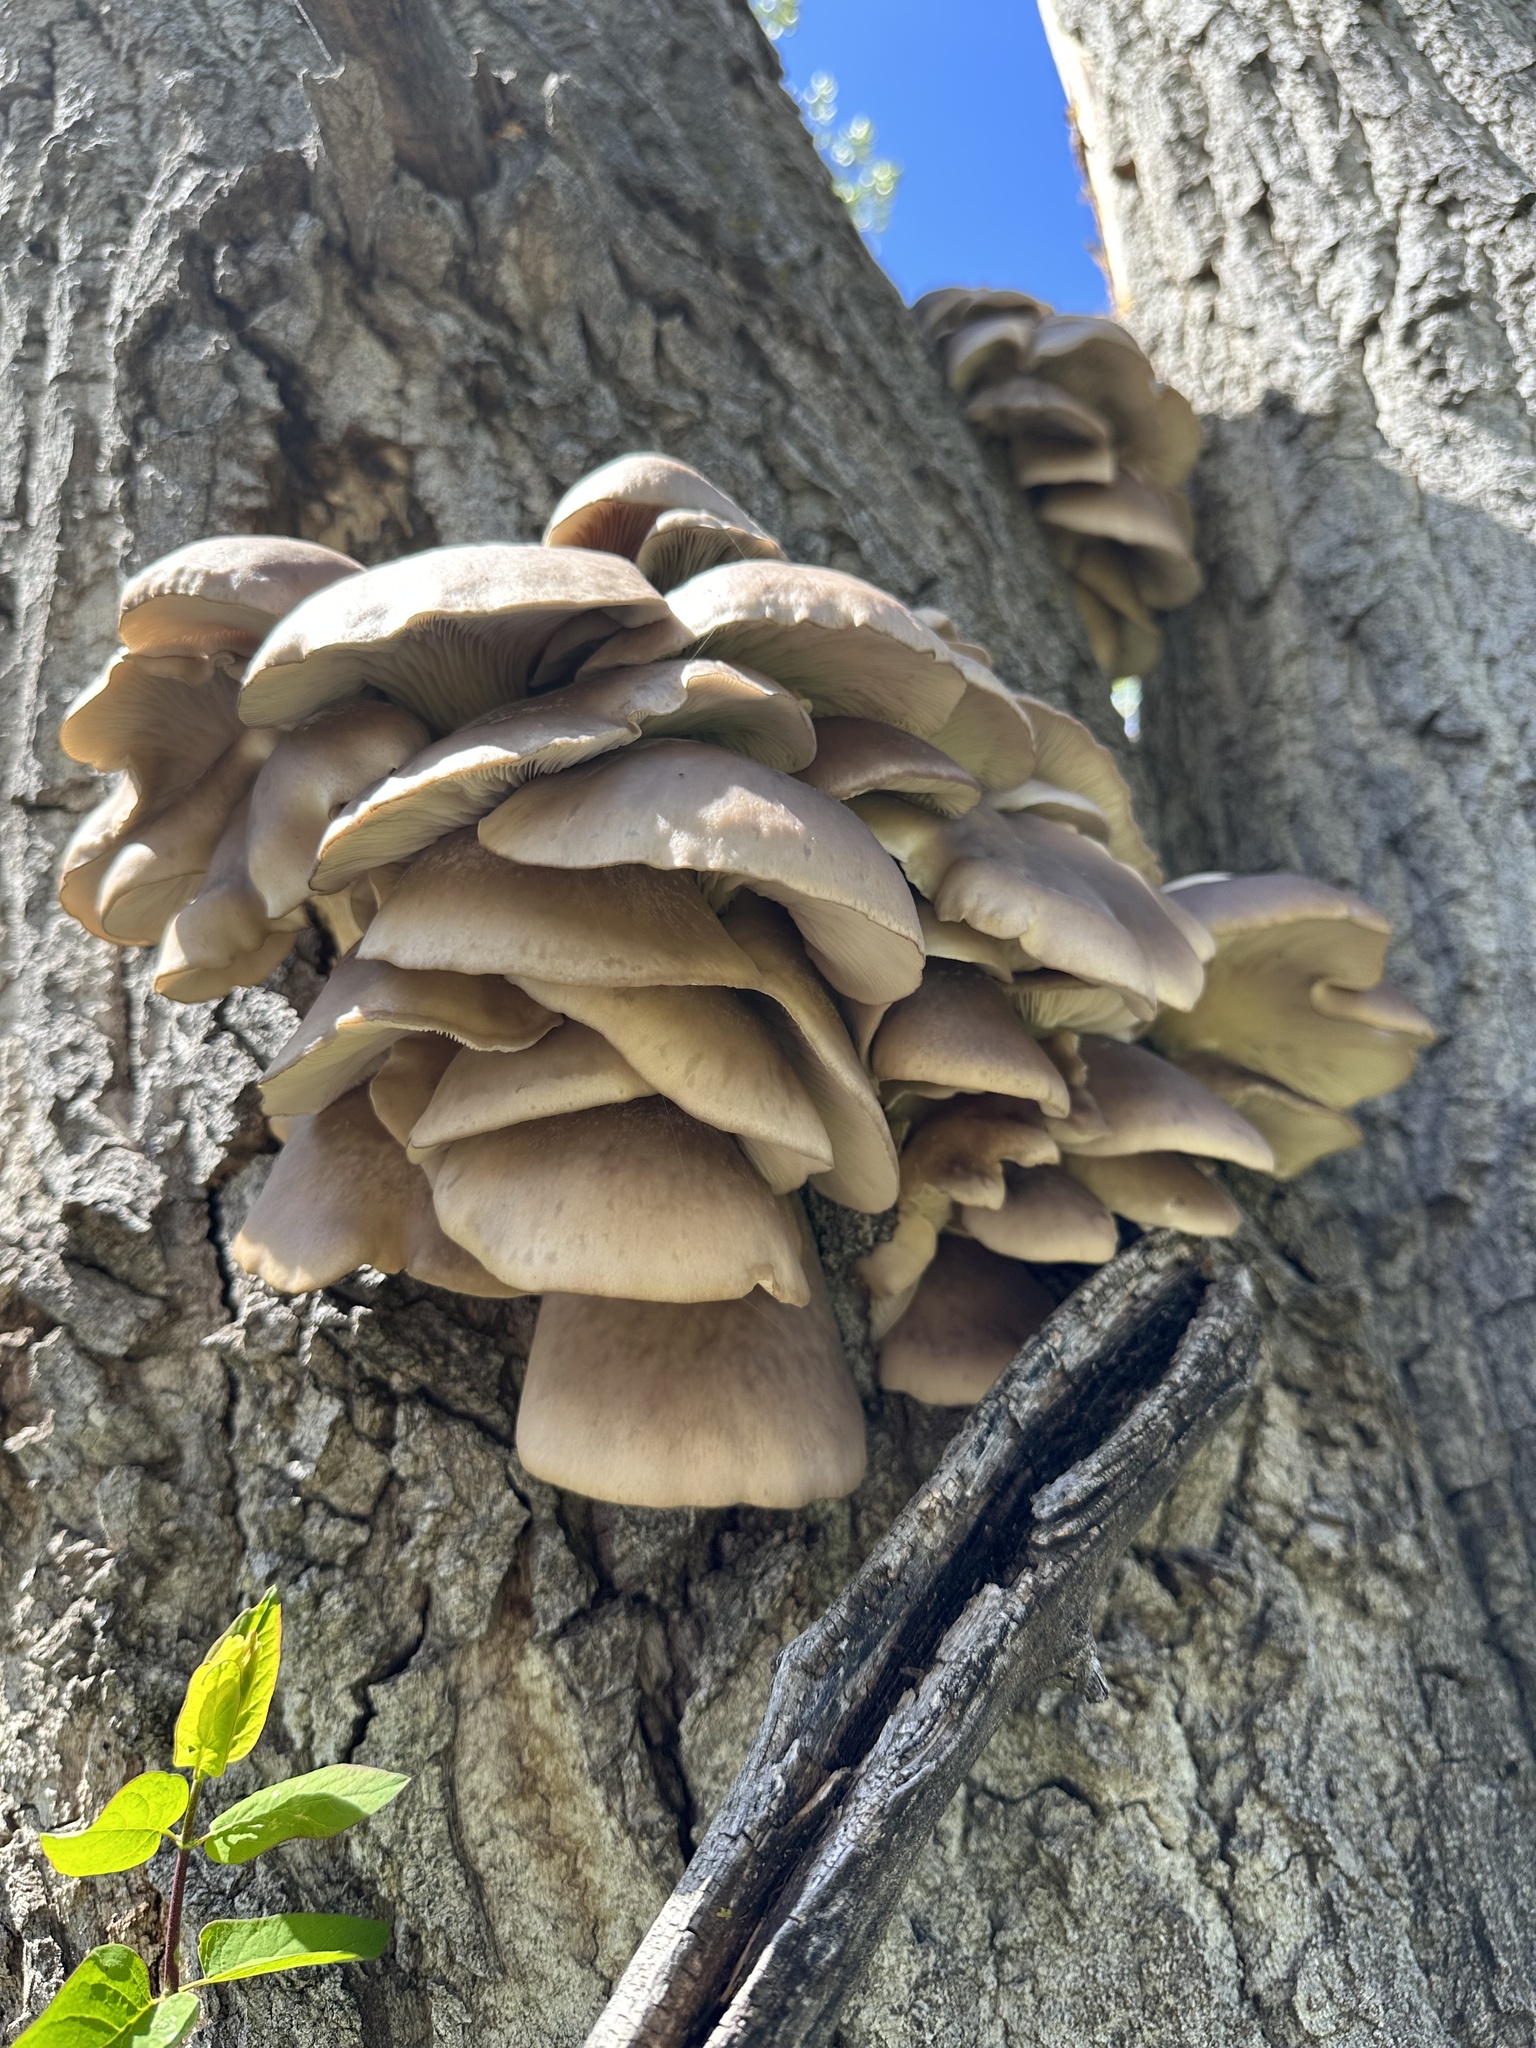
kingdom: Fungi
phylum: Basidiomycota
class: Agaricomycetes
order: Agaricales
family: Pleurotaceae
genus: Pleurotus
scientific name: Pleurotus ostreatus
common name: Oyster mushroom
